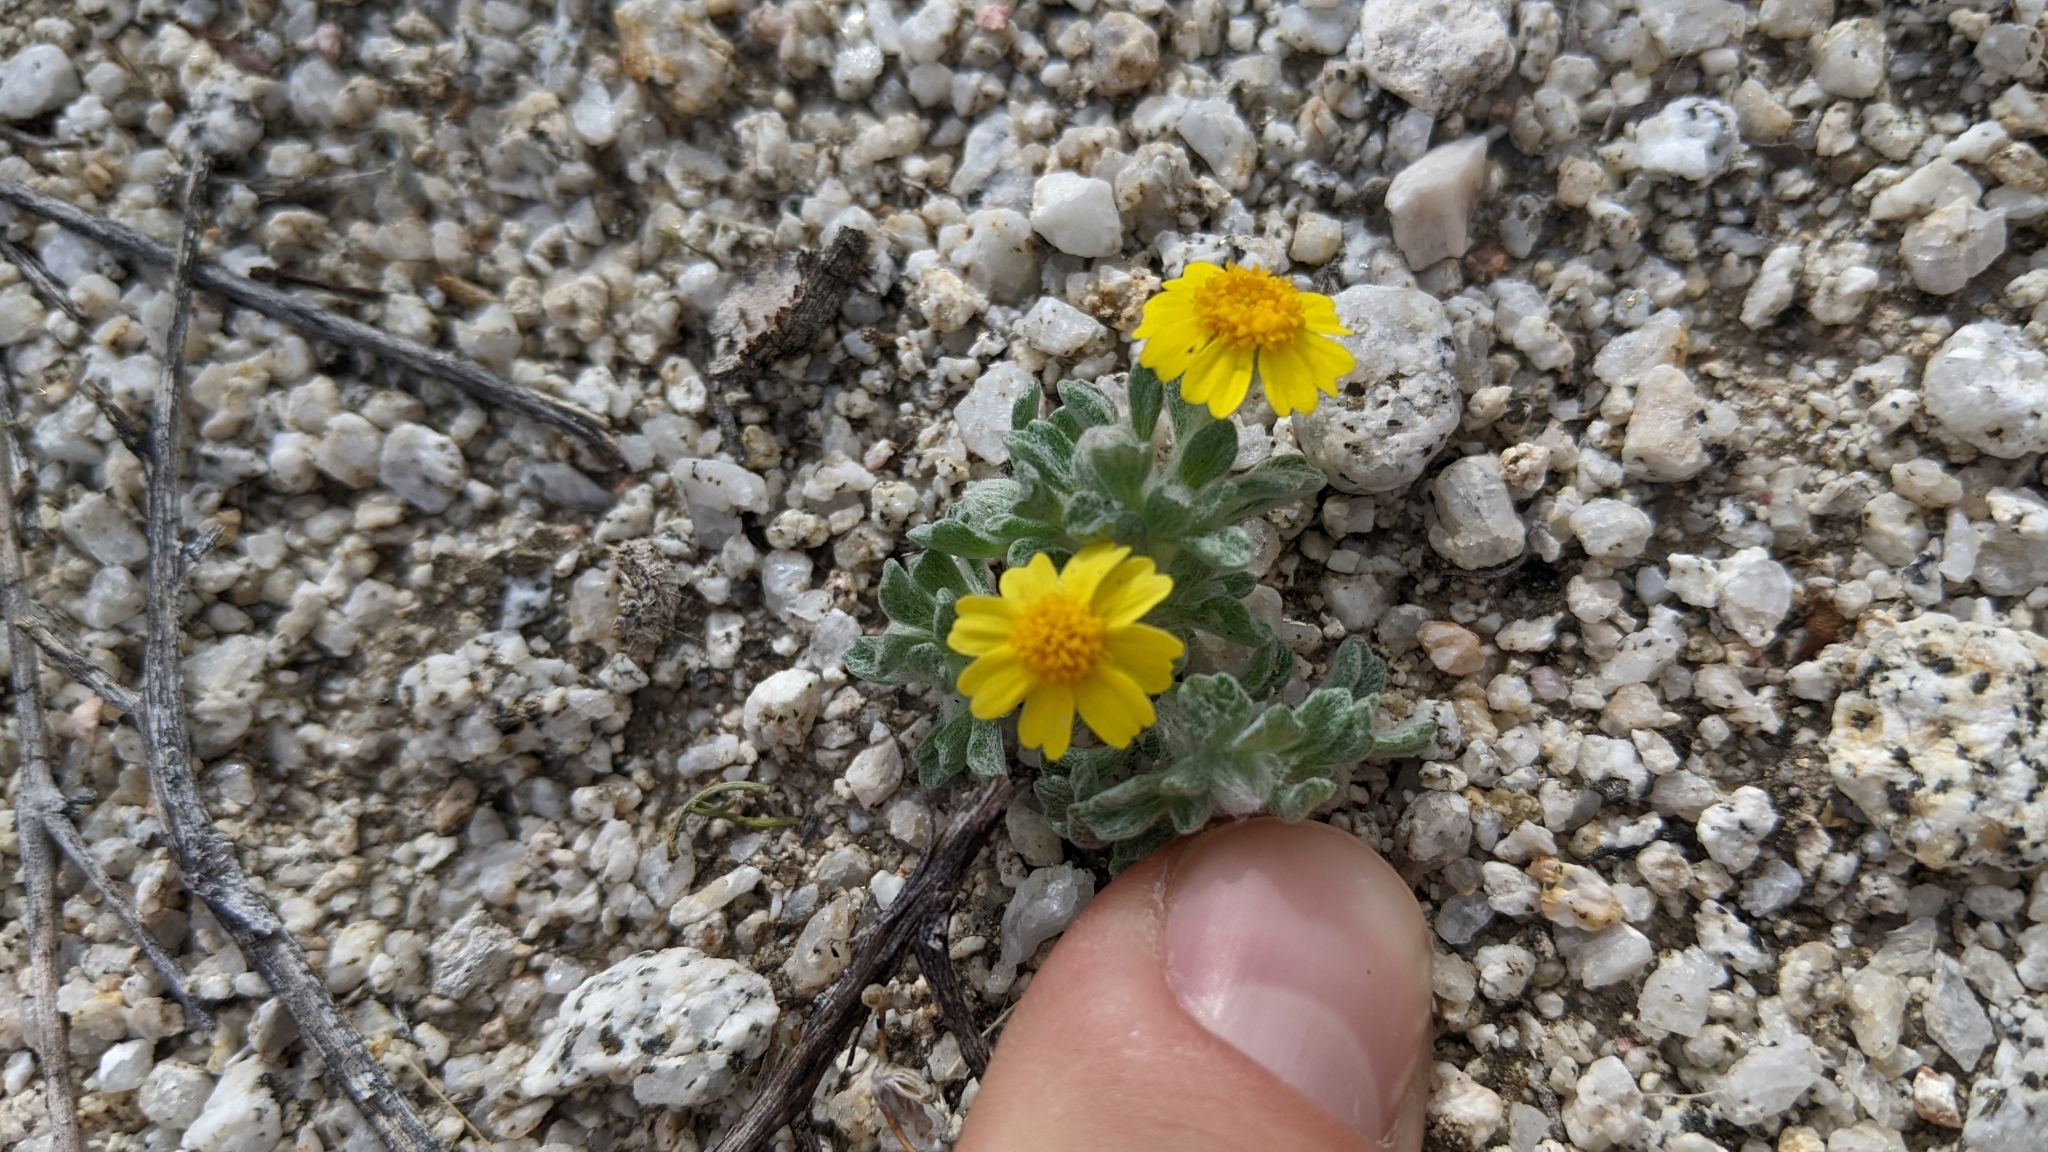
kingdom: Plantae
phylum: Tracheophyta
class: Magnoliopsida
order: Asterales
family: Asteraceae
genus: Eriophyllum
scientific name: Eriophyllum wallacei
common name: Wallace's woolly daisy
